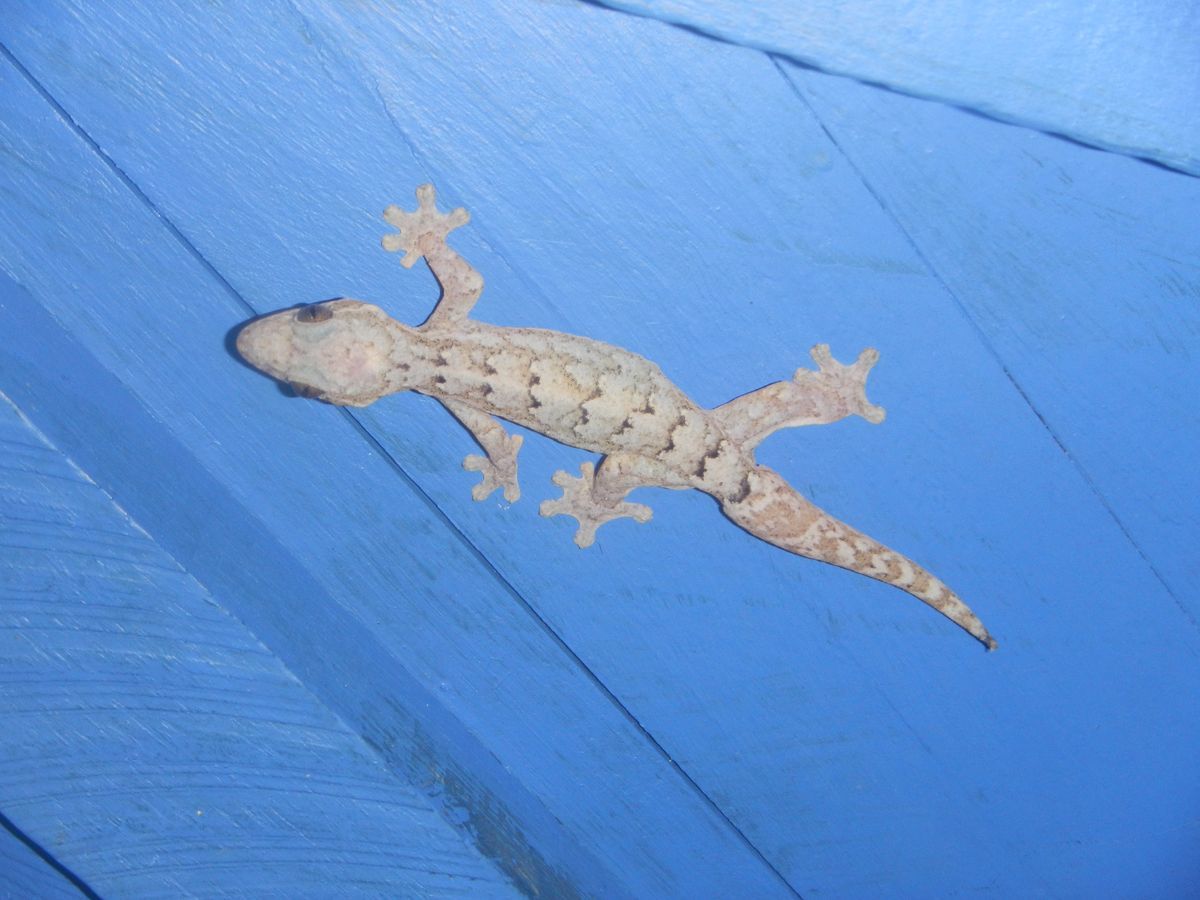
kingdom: Animalia
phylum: Chordata
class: Squamata
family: Phyllodactylidae
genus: Thecadactylus
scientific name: Thecadactylus rapicauda
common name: Turnip-tailed gecko
